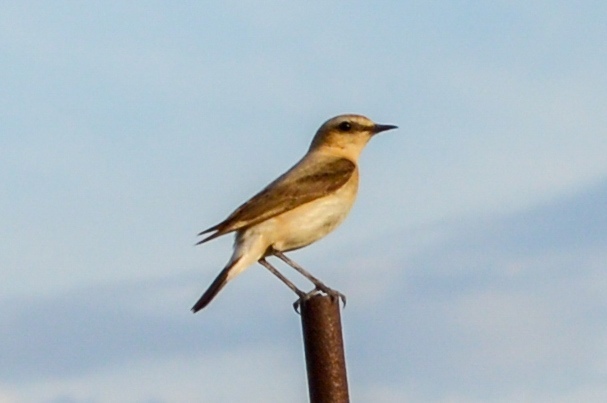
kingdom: Animalia
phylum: Chordata
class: Aves
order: Passeriformes
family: Muscicapidae
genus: Oenanthe
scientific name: Oenanthe oenanthe
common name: Northern wheatear
